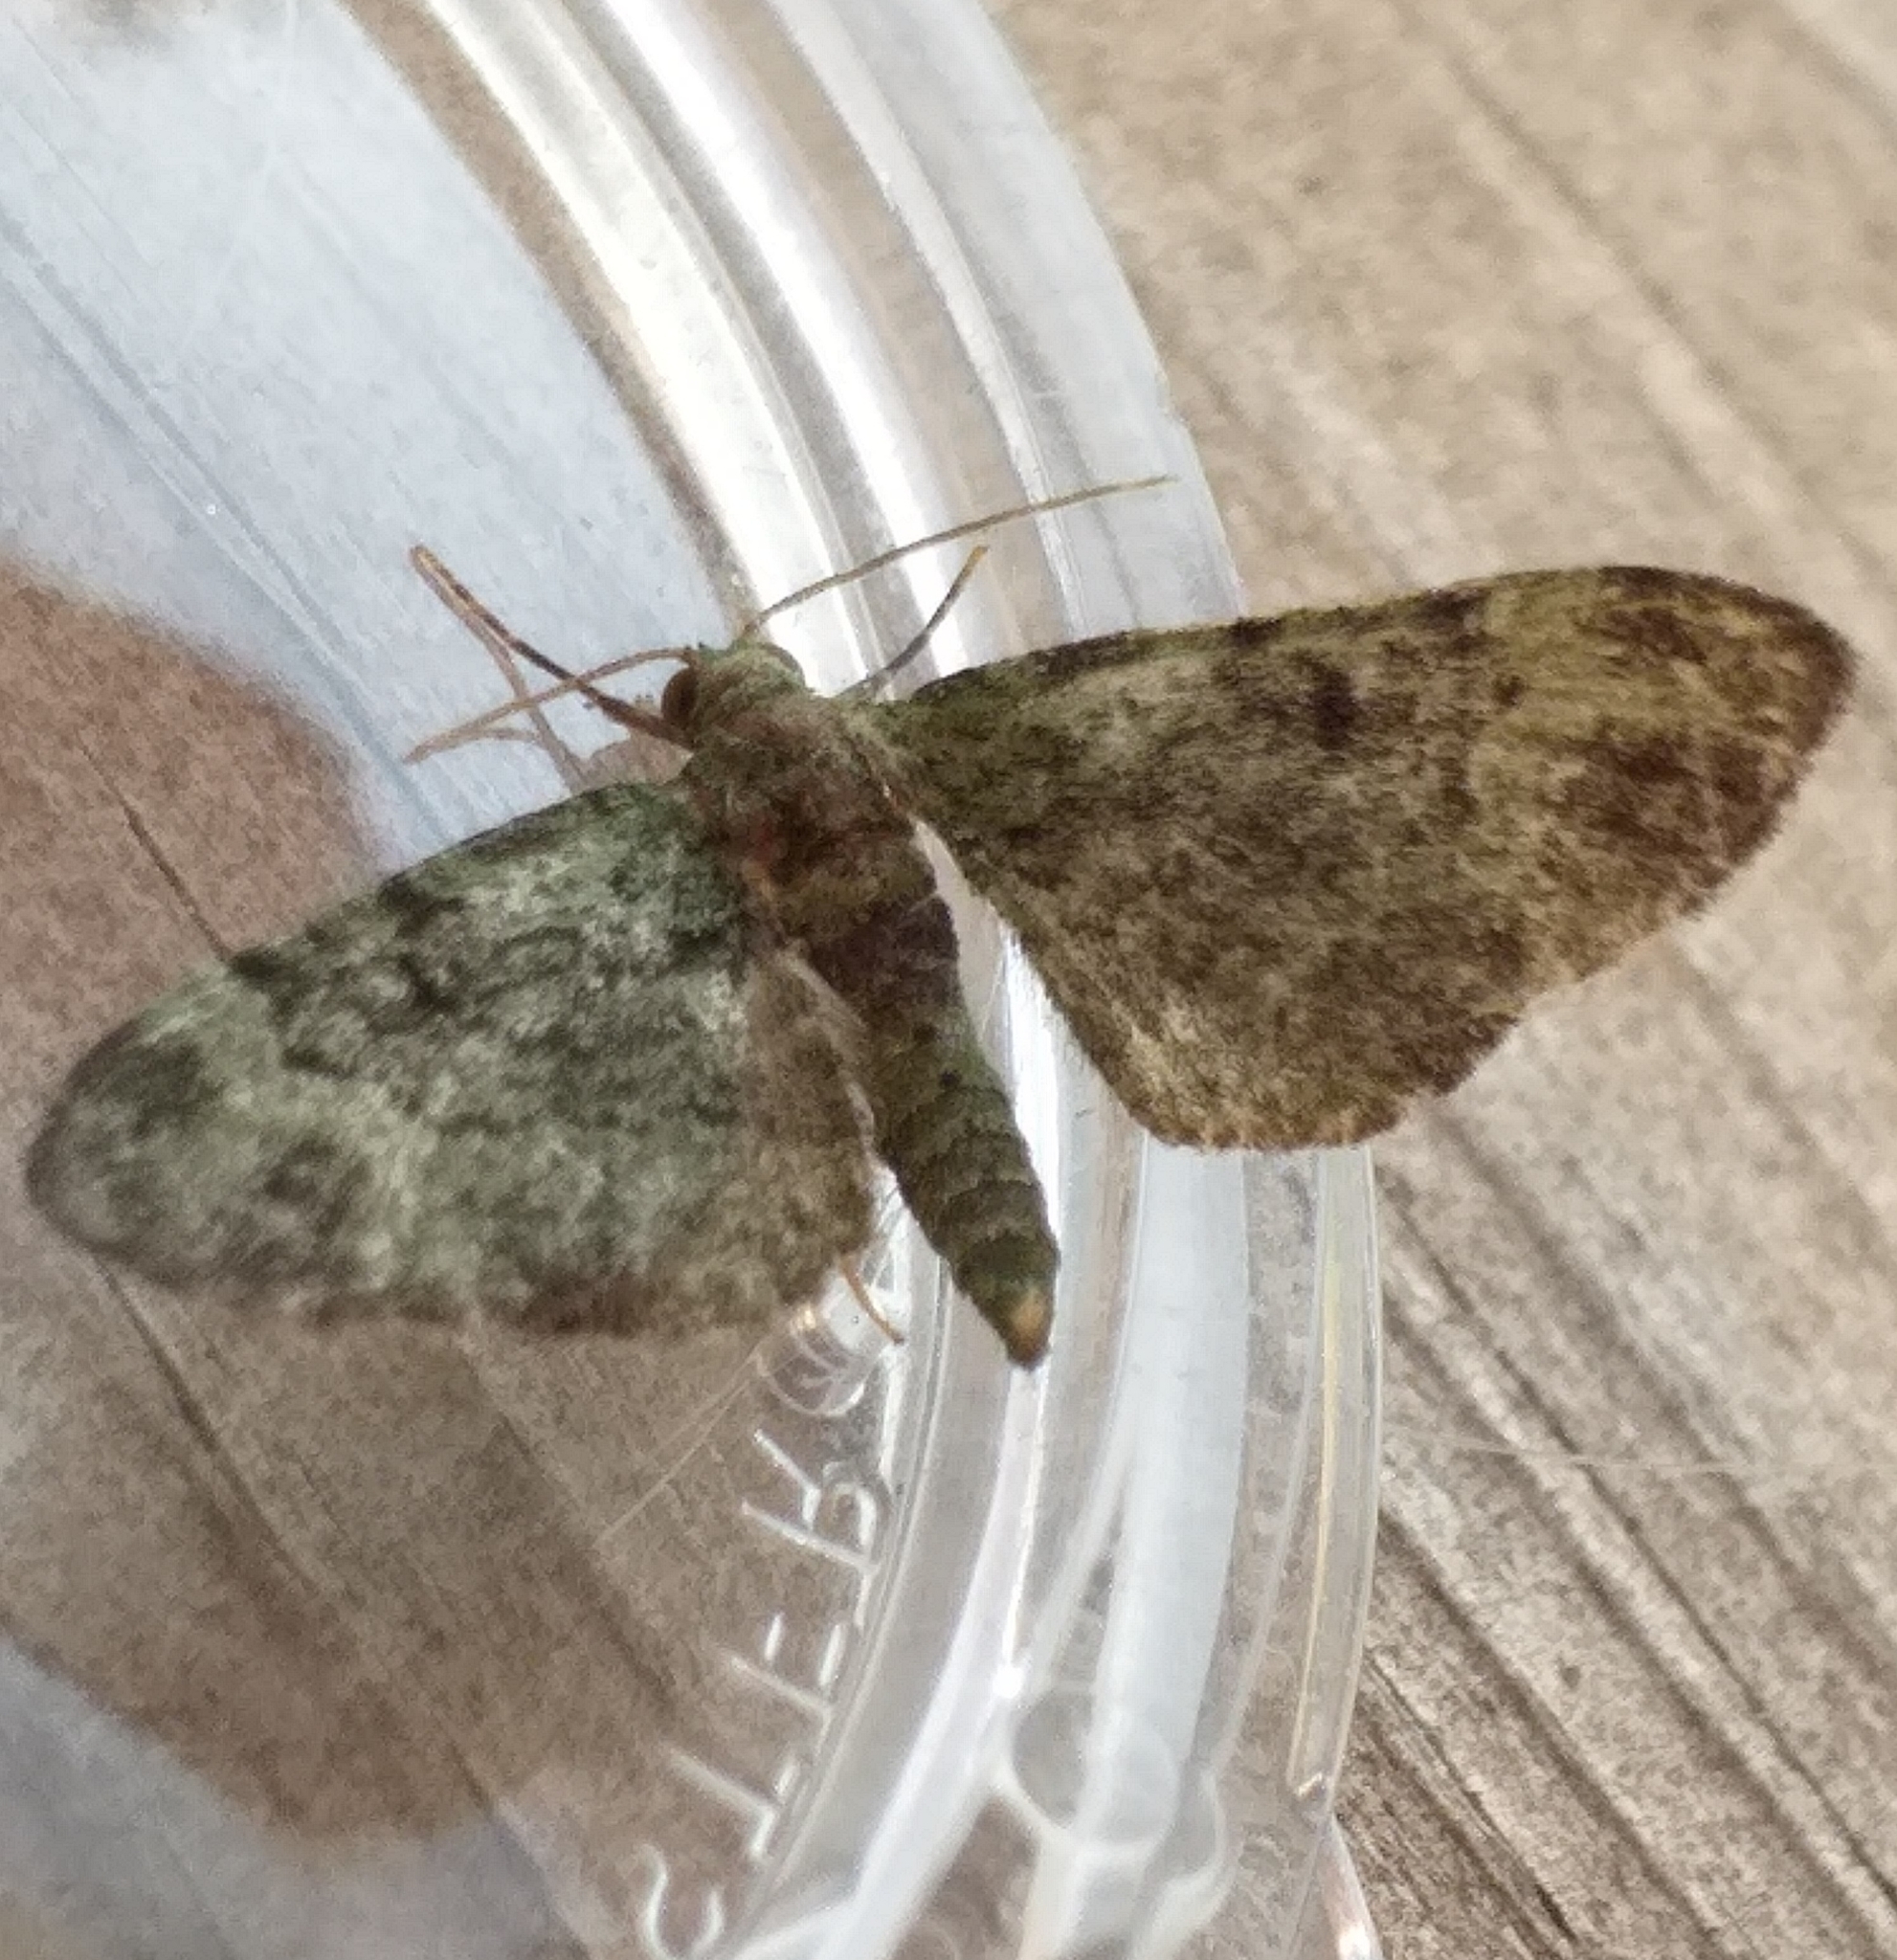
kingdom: Animalia
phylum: Arthropoda
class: Insecta
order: Lepidoptera
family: Geometridae
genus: Pasiphila
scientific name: Pasiphila rectangulata
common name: Green pug
